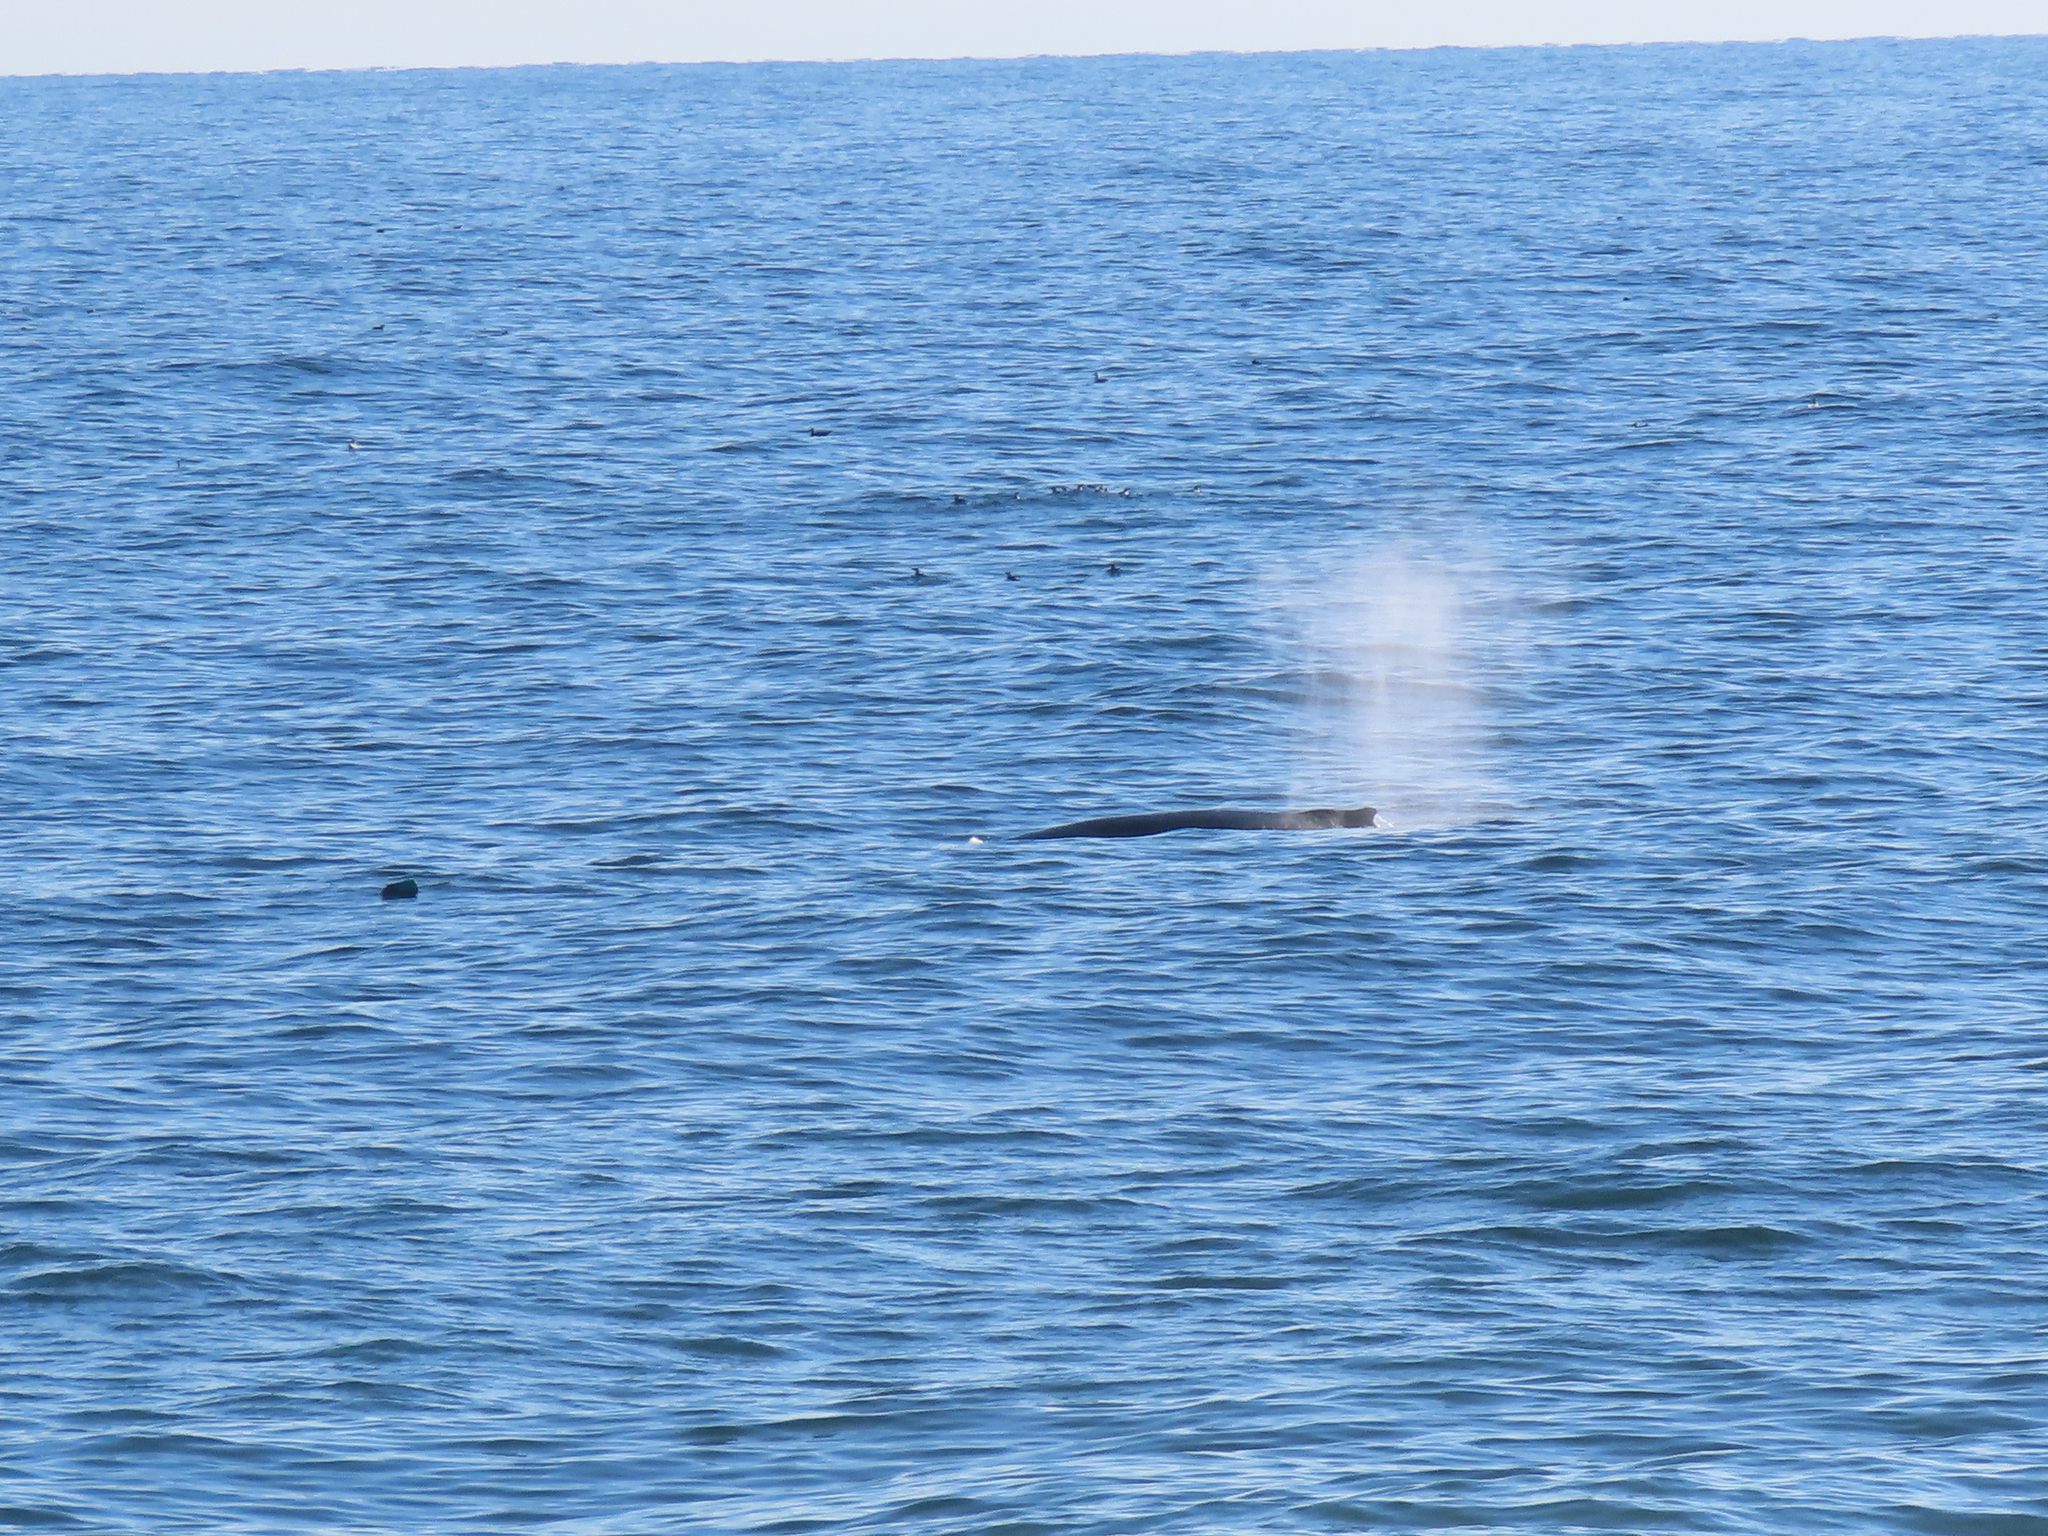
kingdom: Animalia
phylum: Chordata
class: Mammalia
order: Cetacea
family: Balaenopteridae
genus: Megaptera
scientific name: Megaptera novaeangliae
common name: Humpback whale
